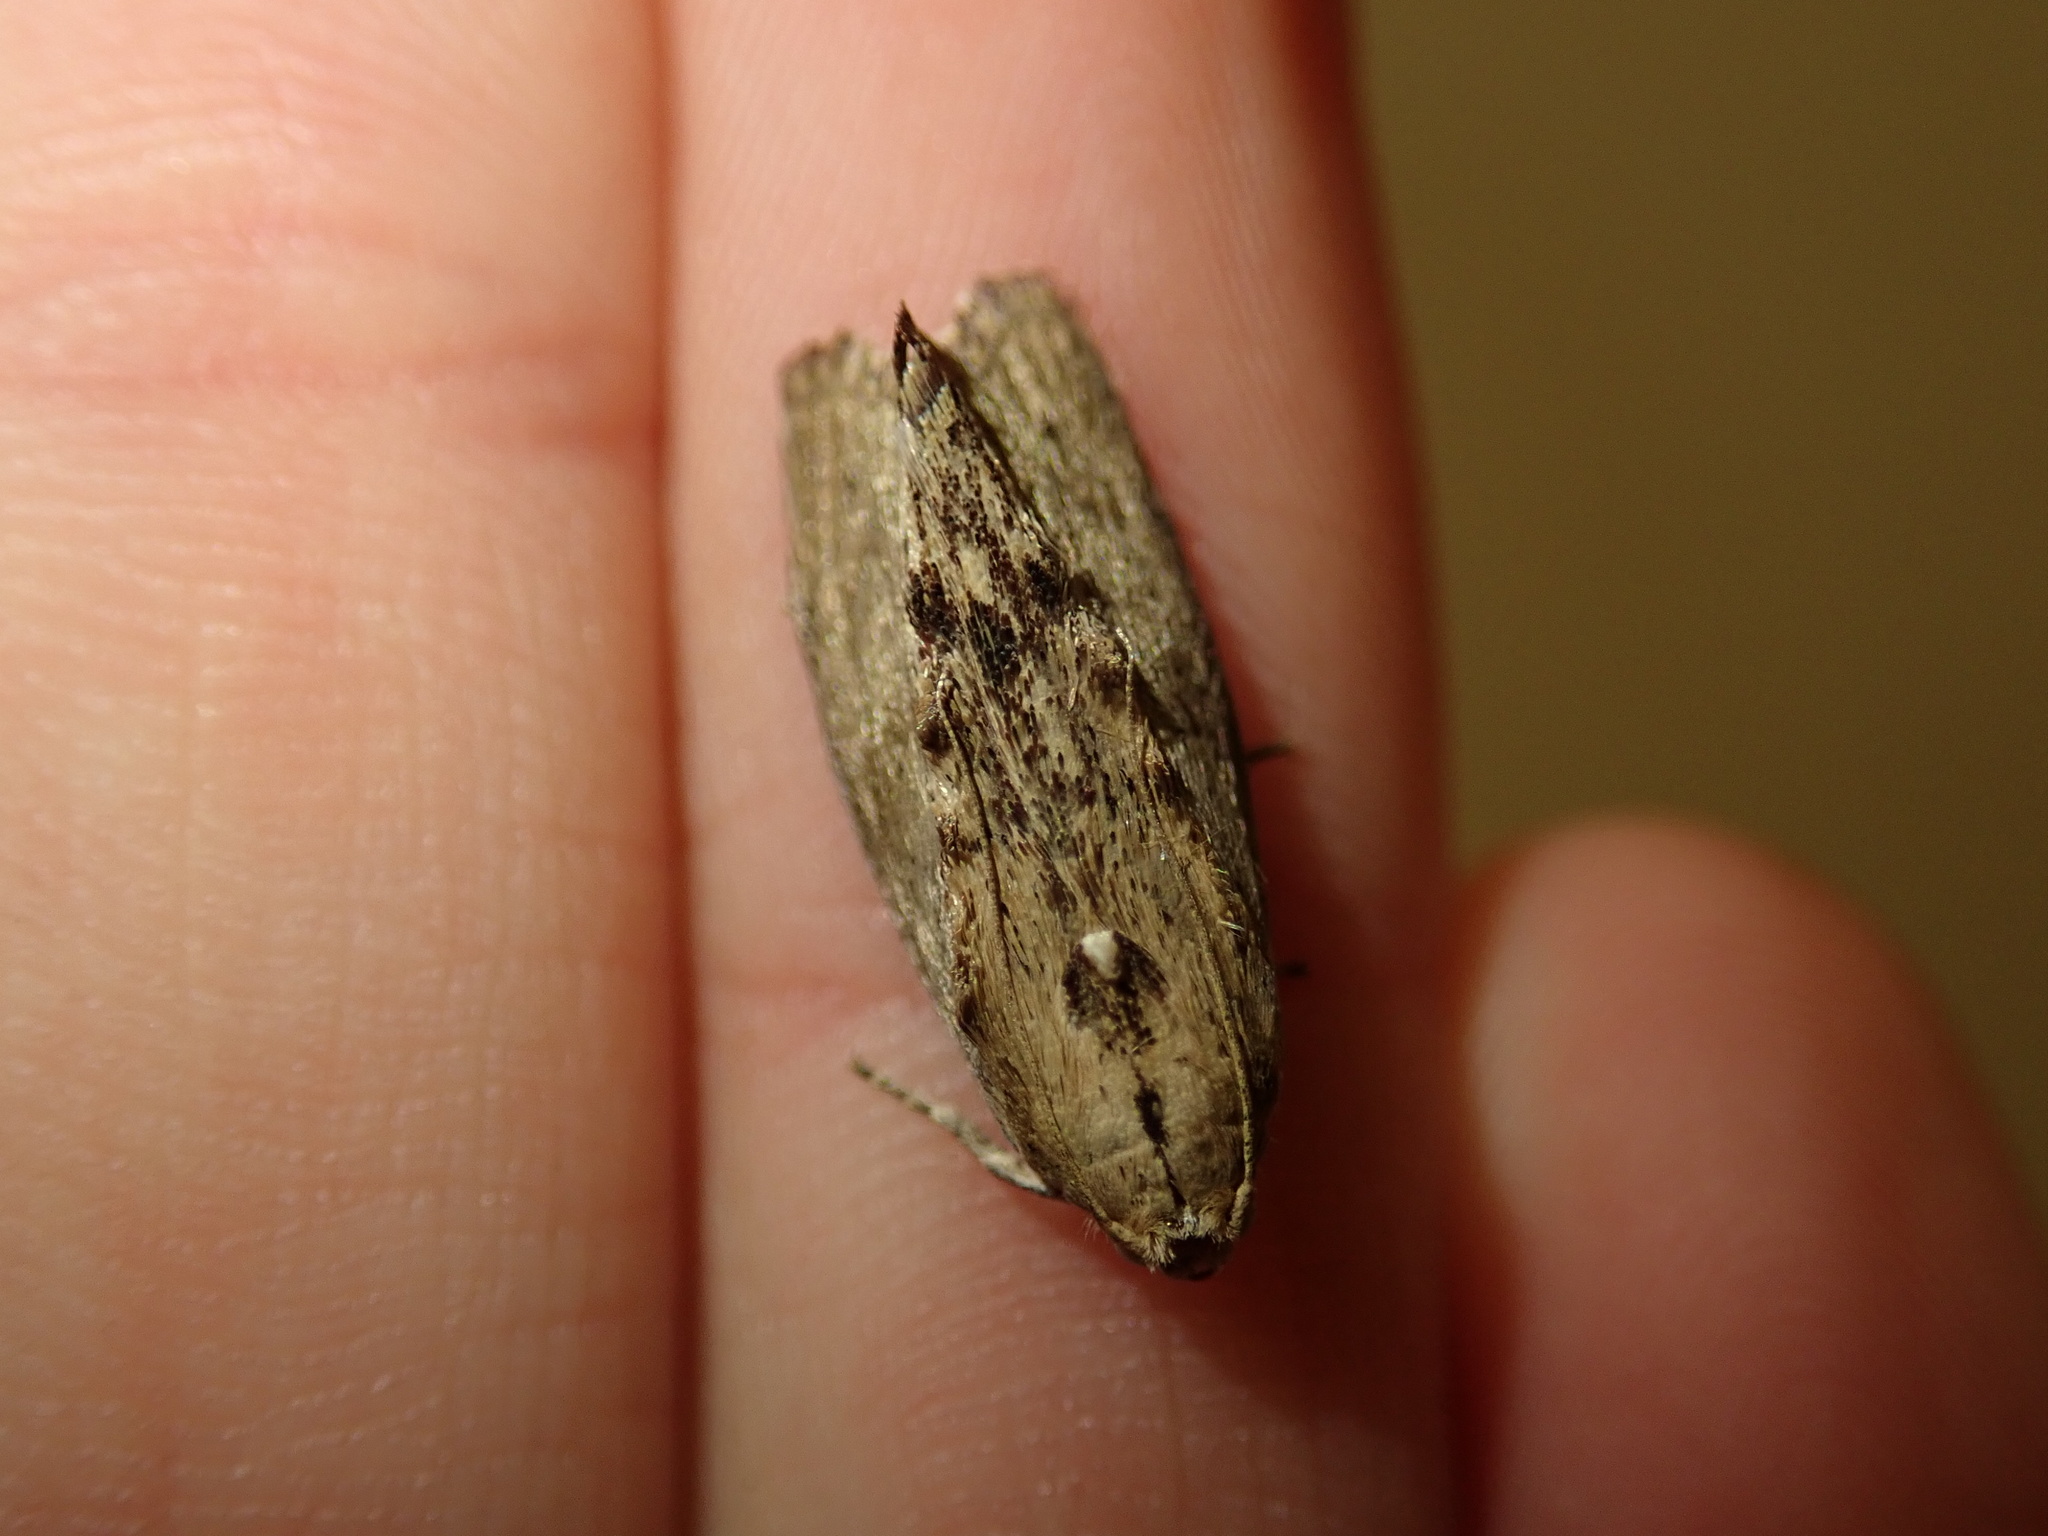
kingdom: Animalia
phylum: Arthropoda
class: Insecta
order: Lepidoptera
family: Pyralidae
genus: Galleria
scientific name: Galleria mellonella
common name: Greater wax moth
